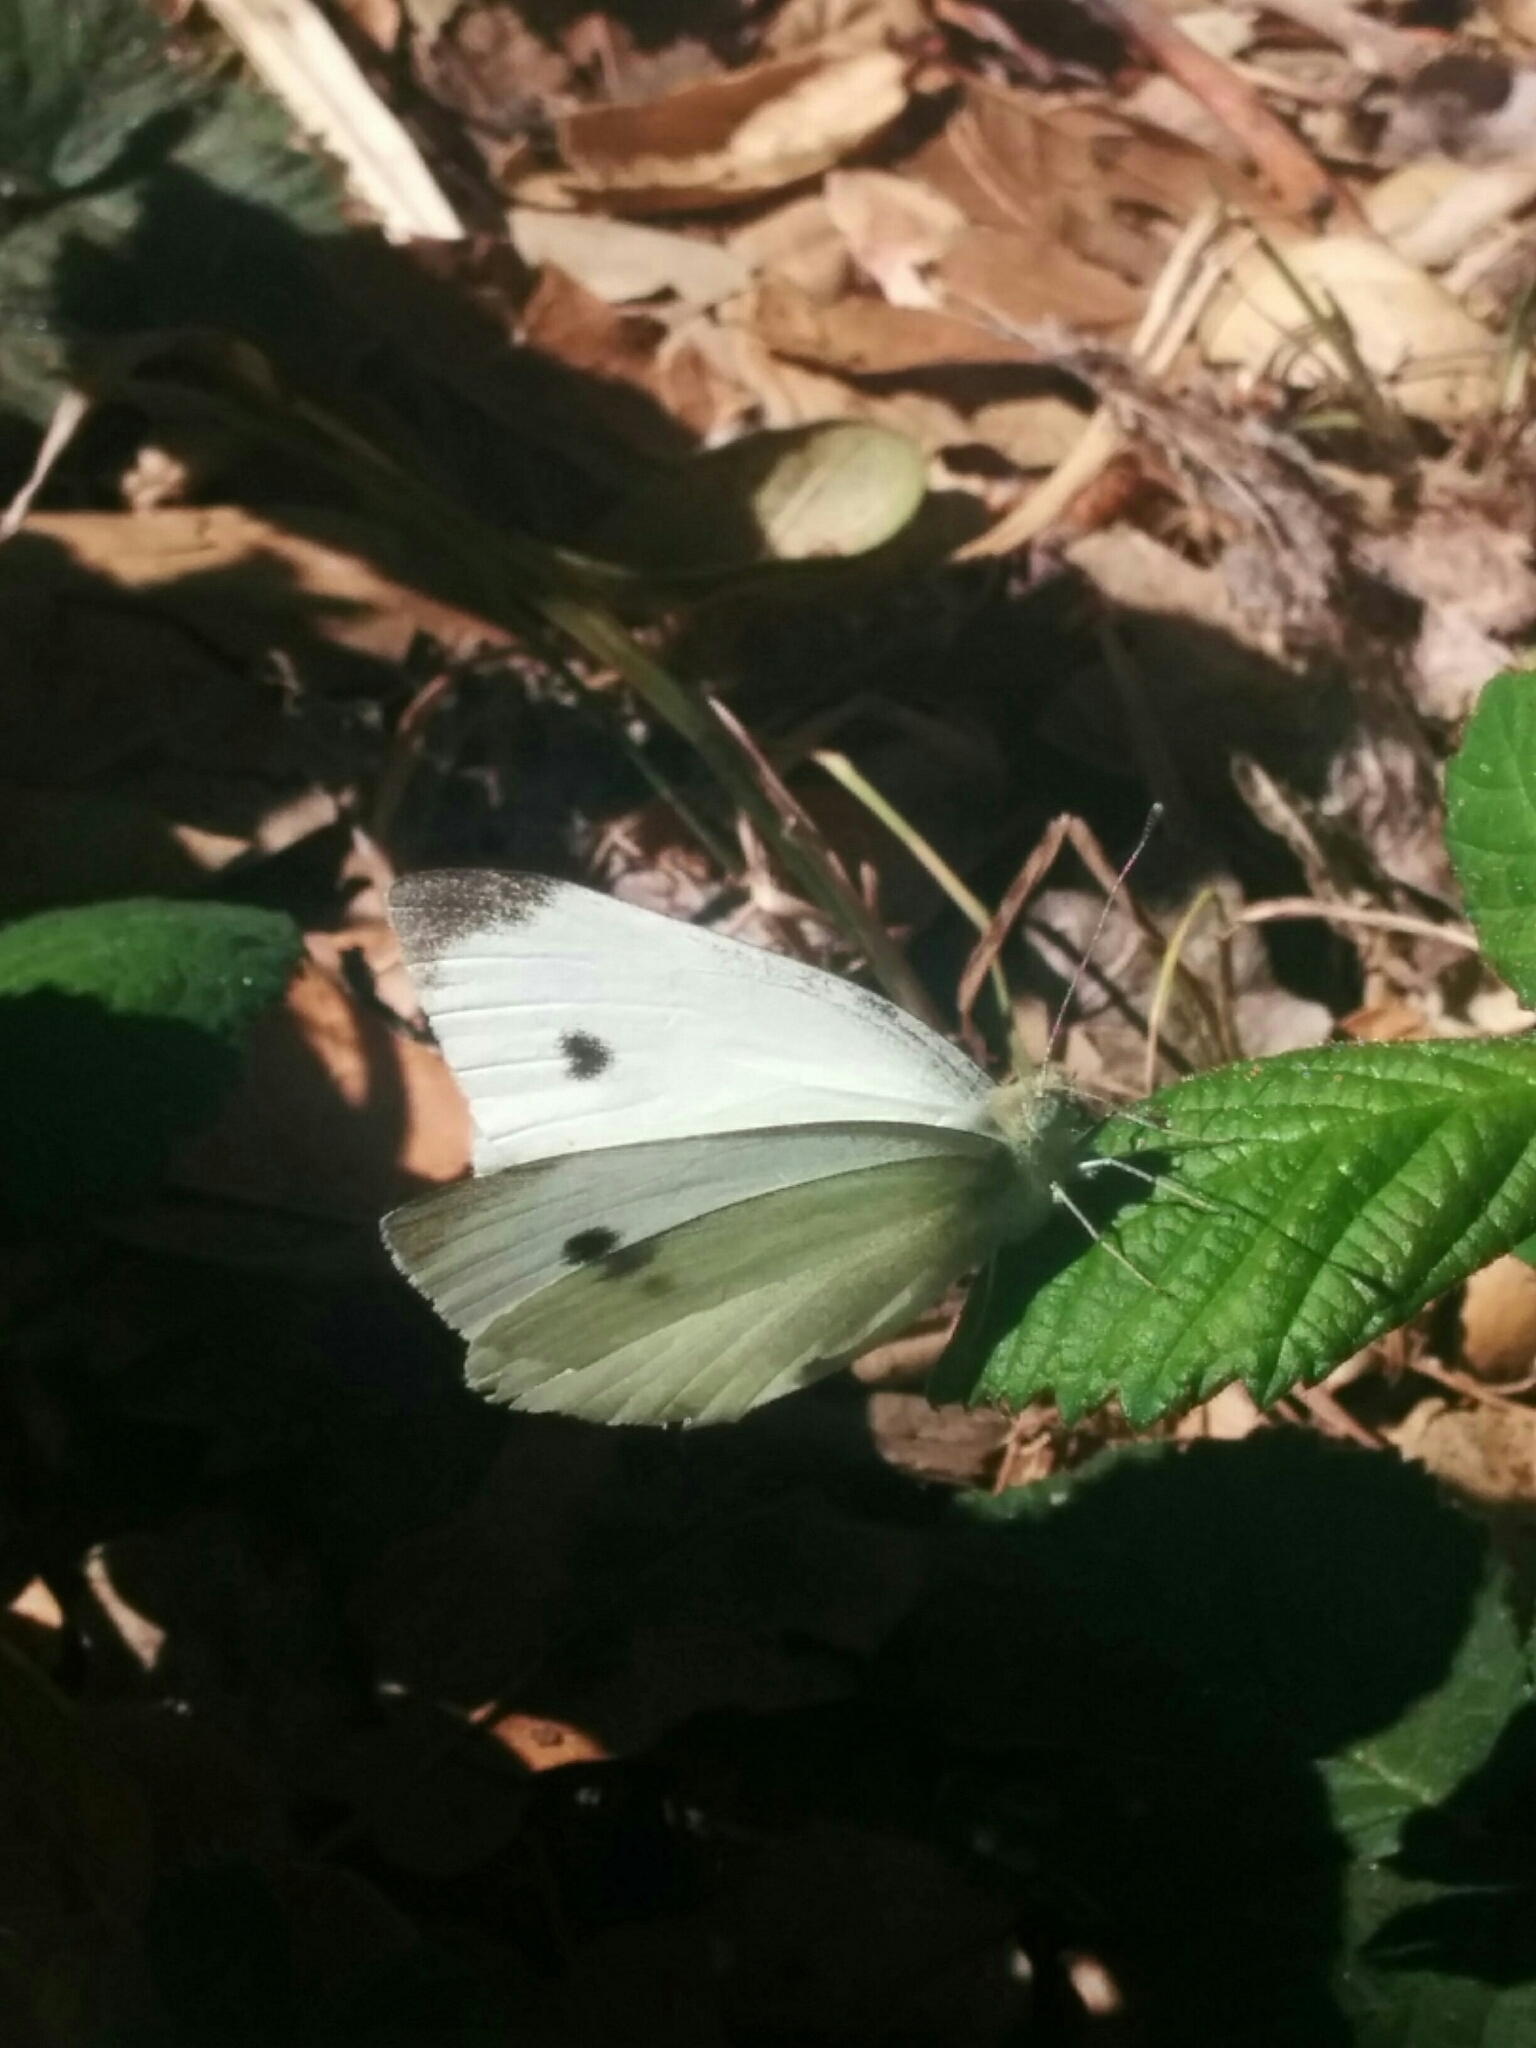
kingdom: Animalia
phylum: Arthropoda
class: Insecta
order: Lepidoptera
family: Pieridae
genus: Pieris
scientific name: Pieris rapae
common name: Small white
